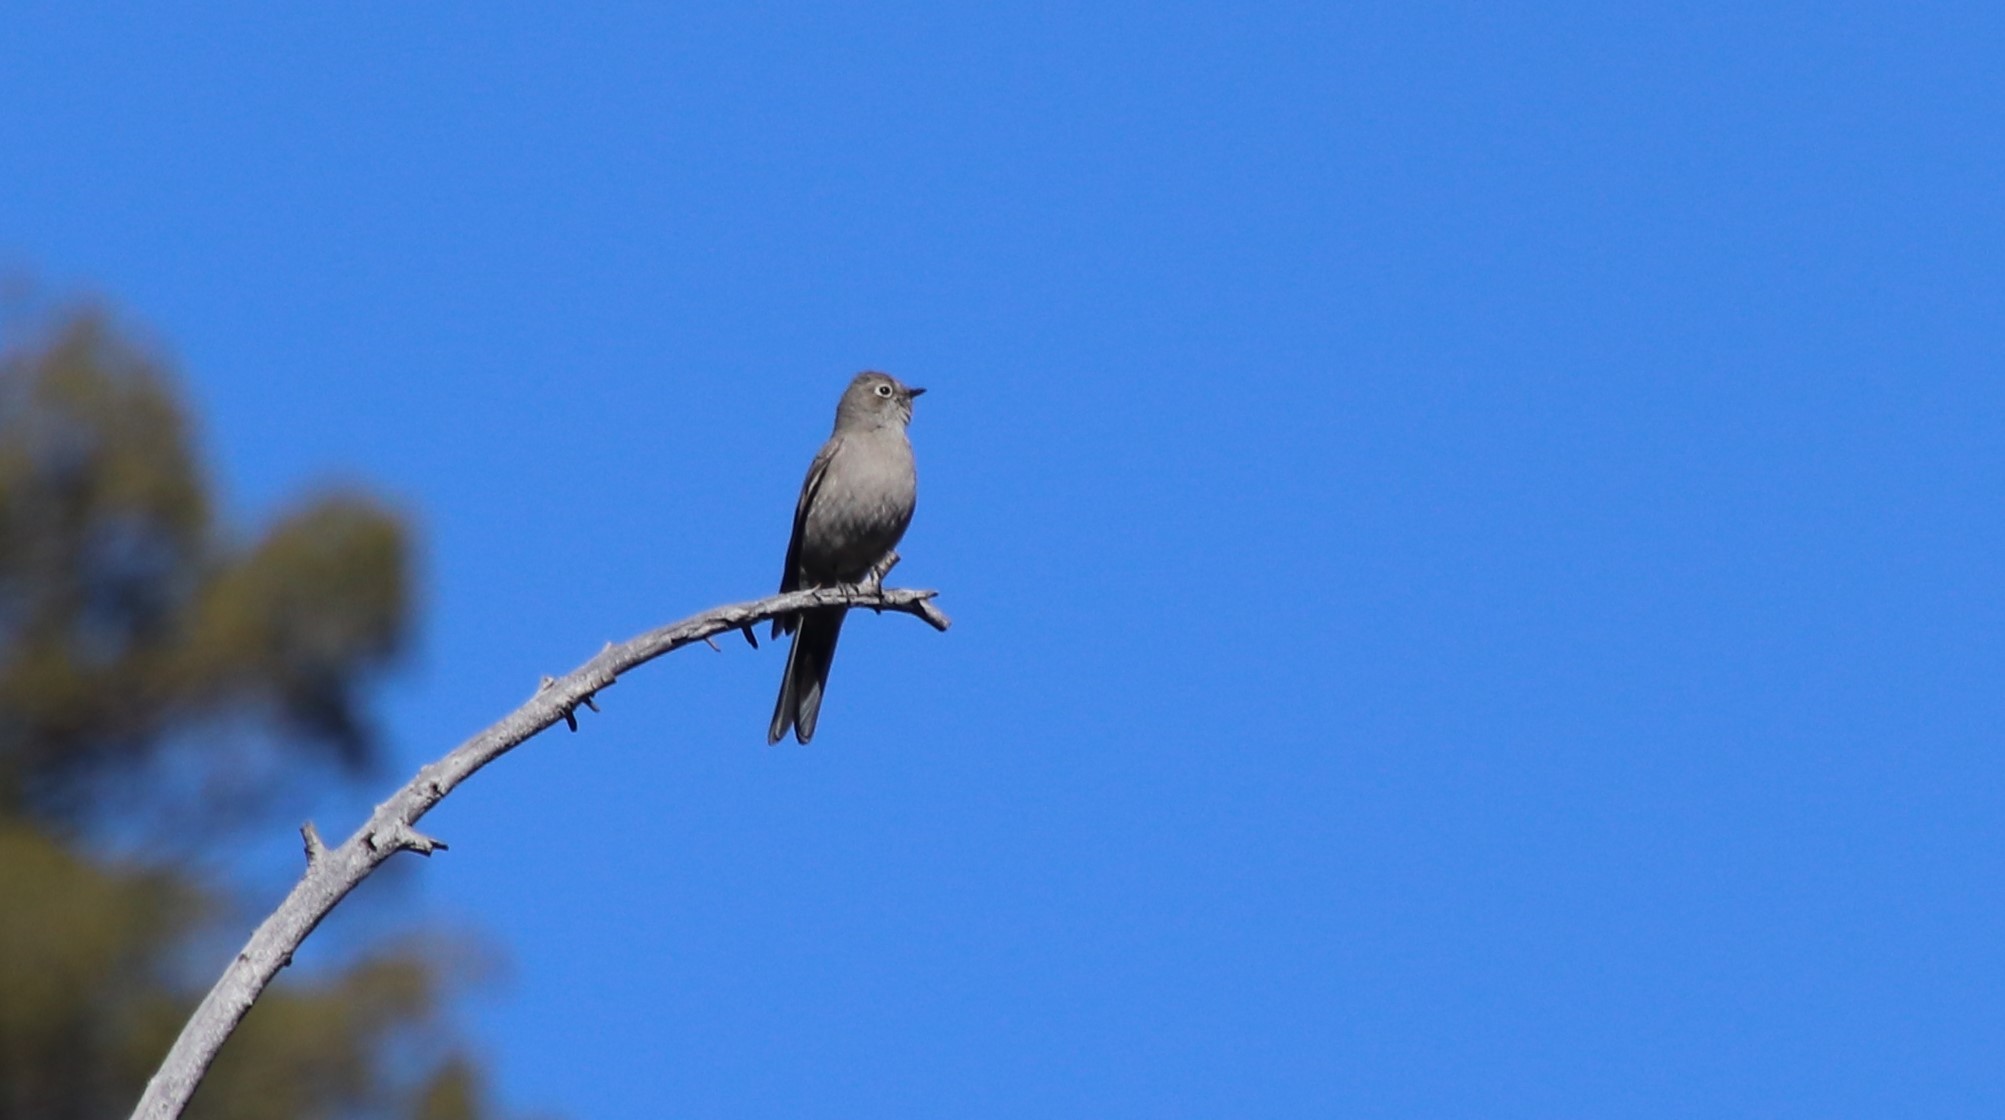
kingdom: Animalia
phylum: Chordata
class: Aves
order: Passeriformes
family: Turdidae
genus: Myadestes
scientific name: Myadestes townsendi
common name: Townsend's solitaire
